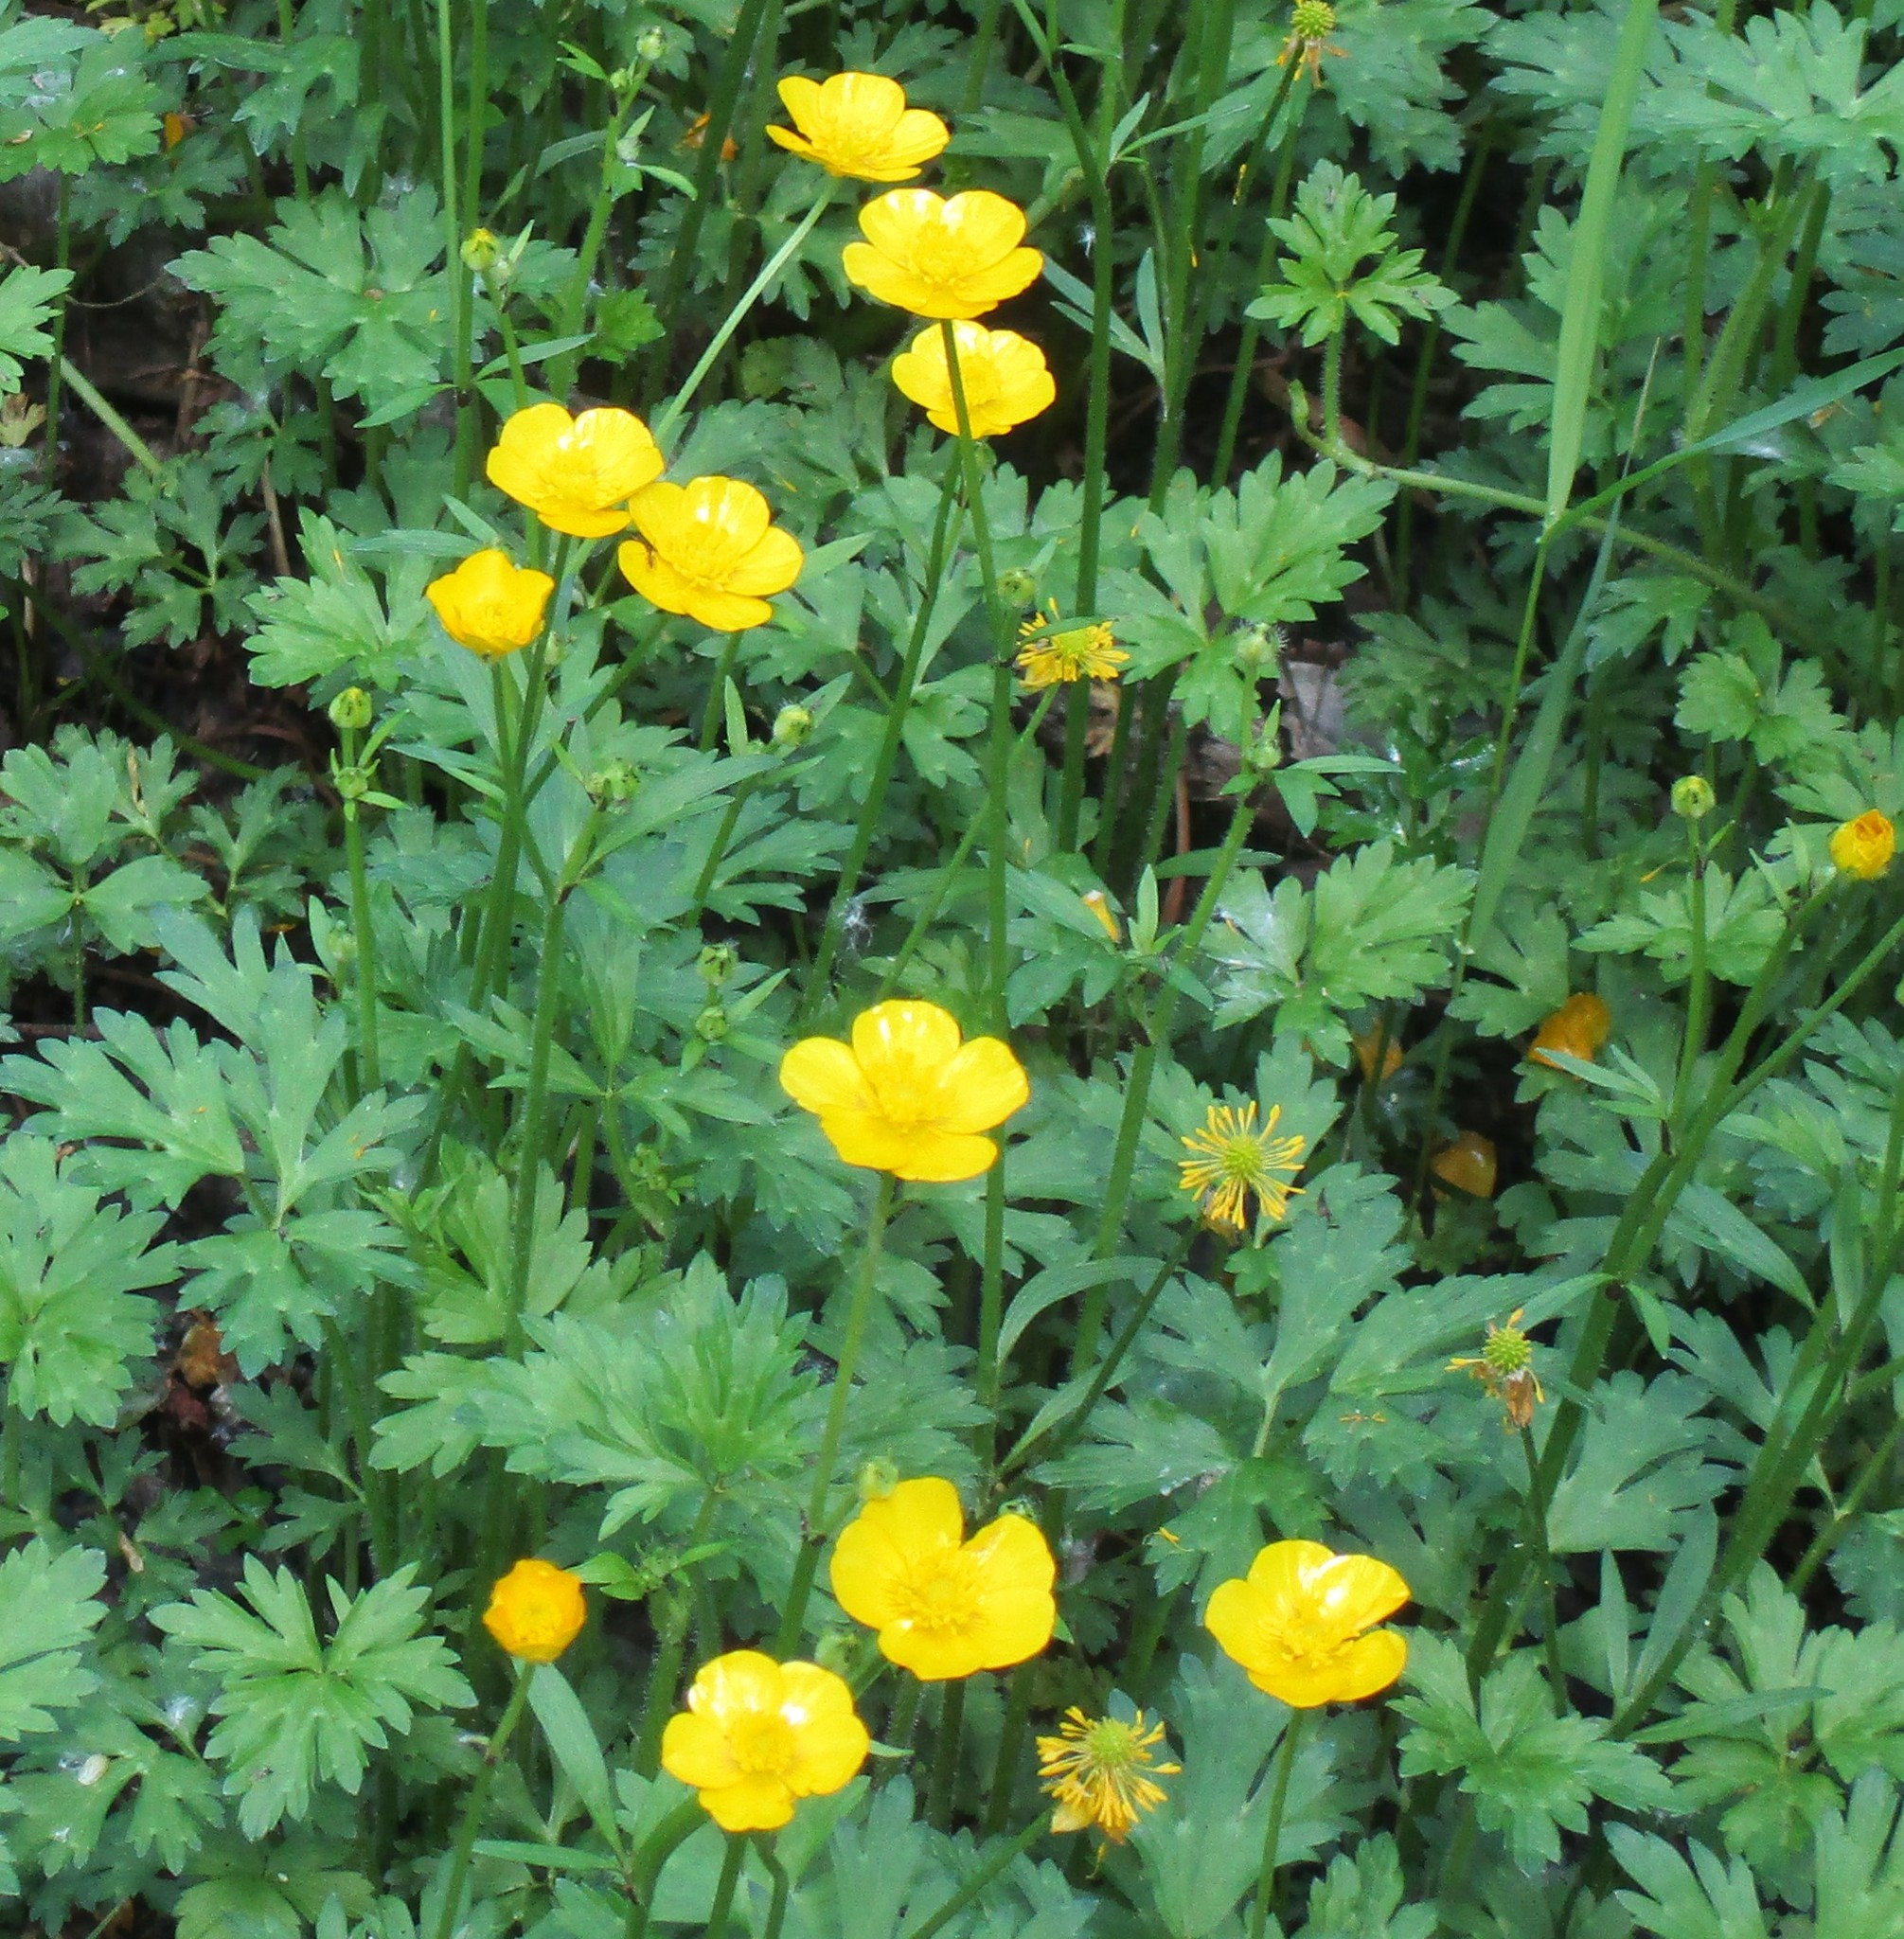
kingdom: Plantae
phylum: Tracheophyta
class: Magnoliopsida
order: Ranunculales
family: Ranunculaceae
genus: Ranunculus
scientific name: Ranunculus repens
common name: Creeping buttercup
